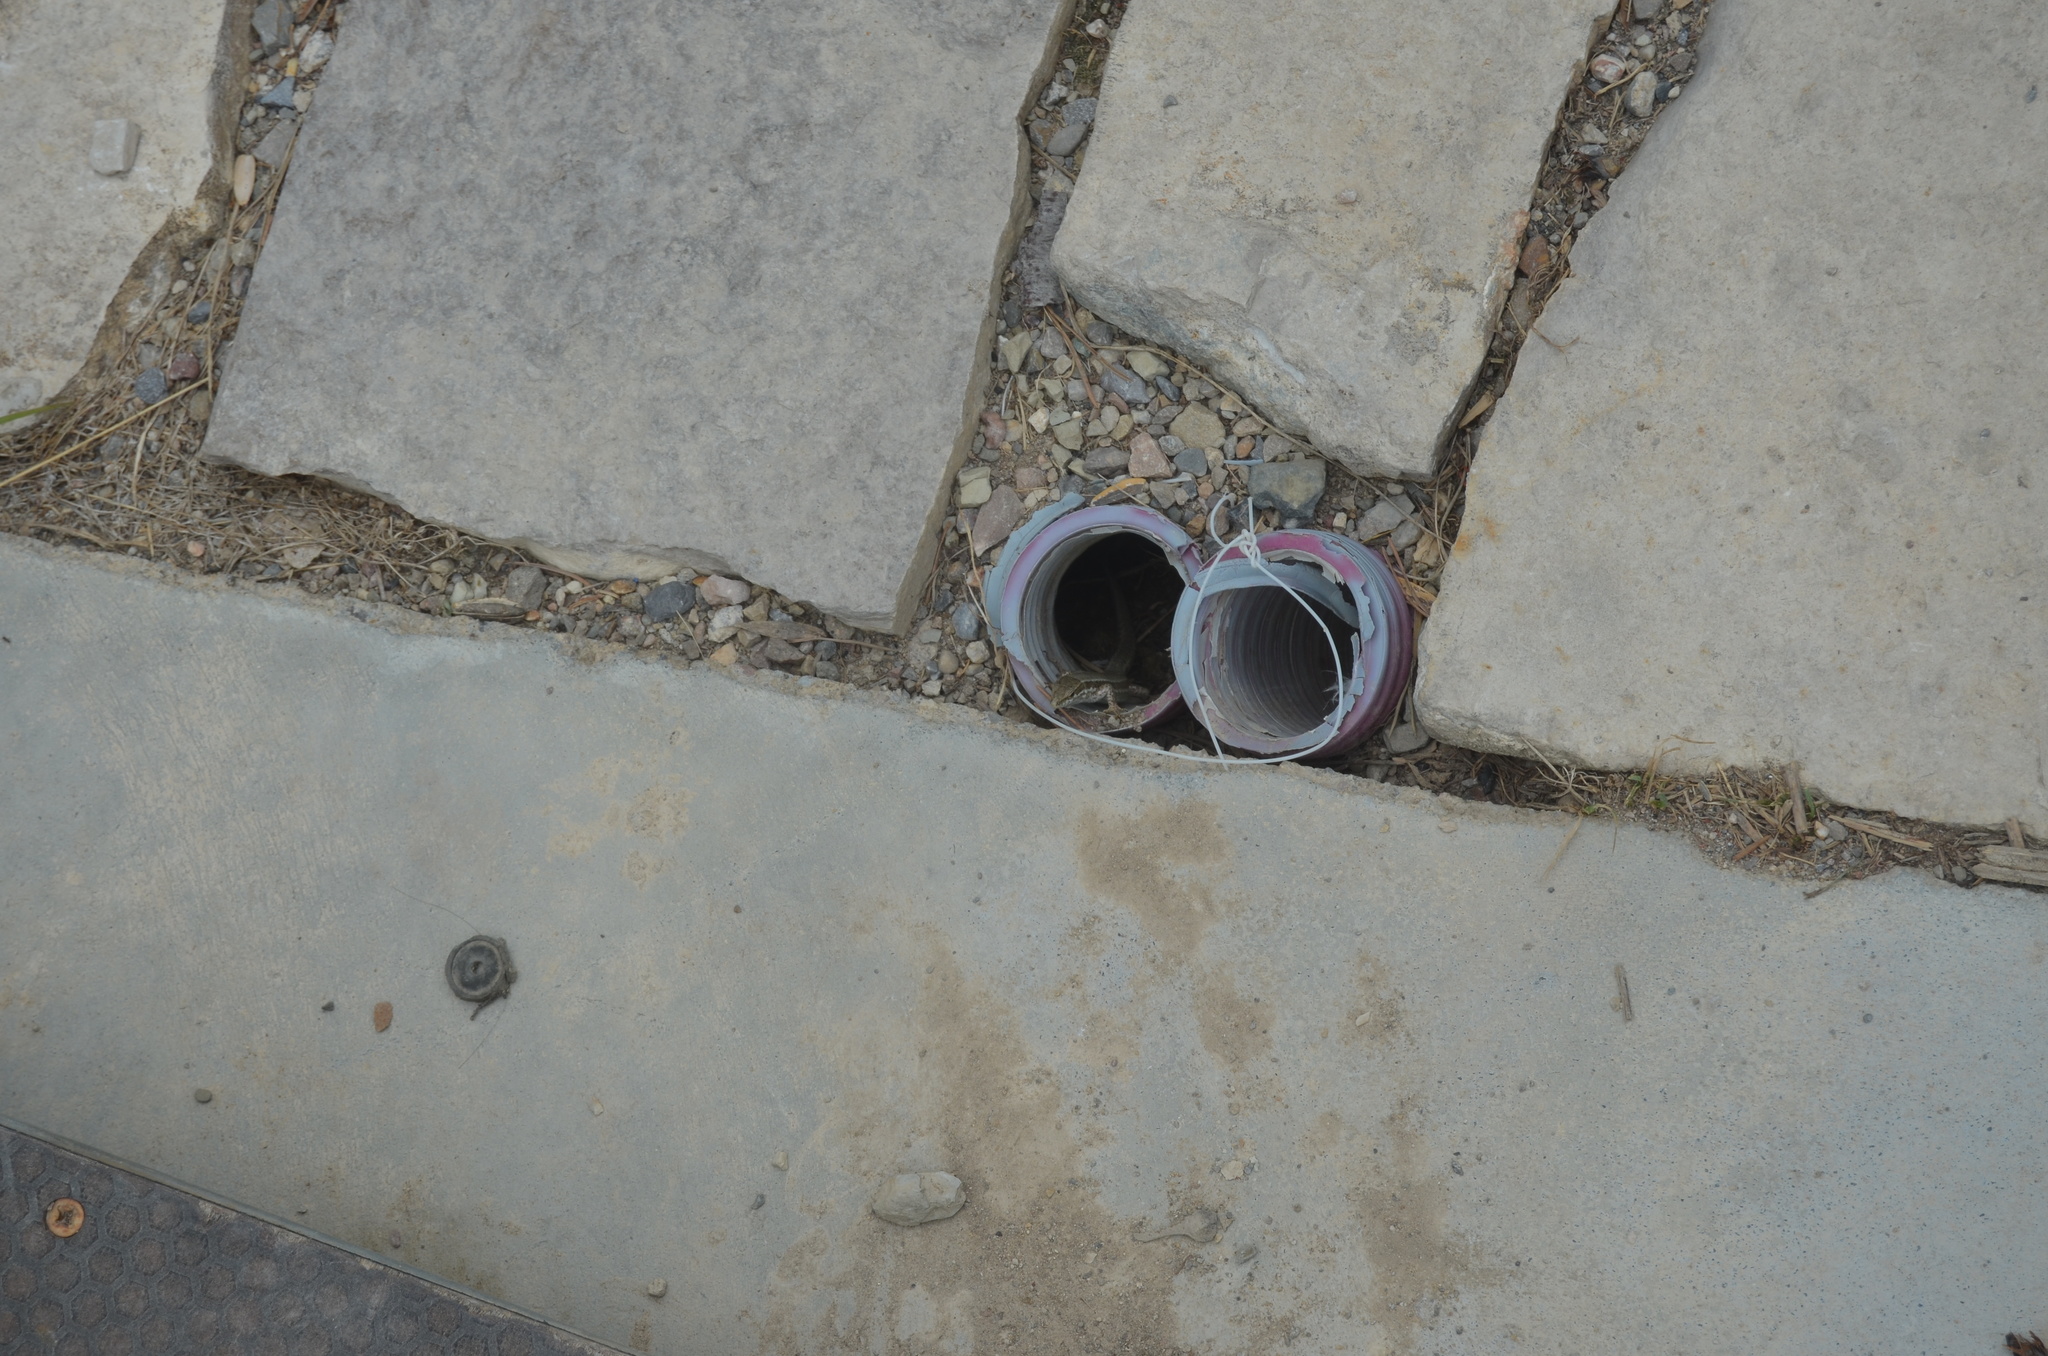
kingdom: Animalia
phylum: Chordata
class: Squamata
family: Lacertidae
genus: Podarcis
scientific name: Podarcis muralis
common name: Common wall lizard
